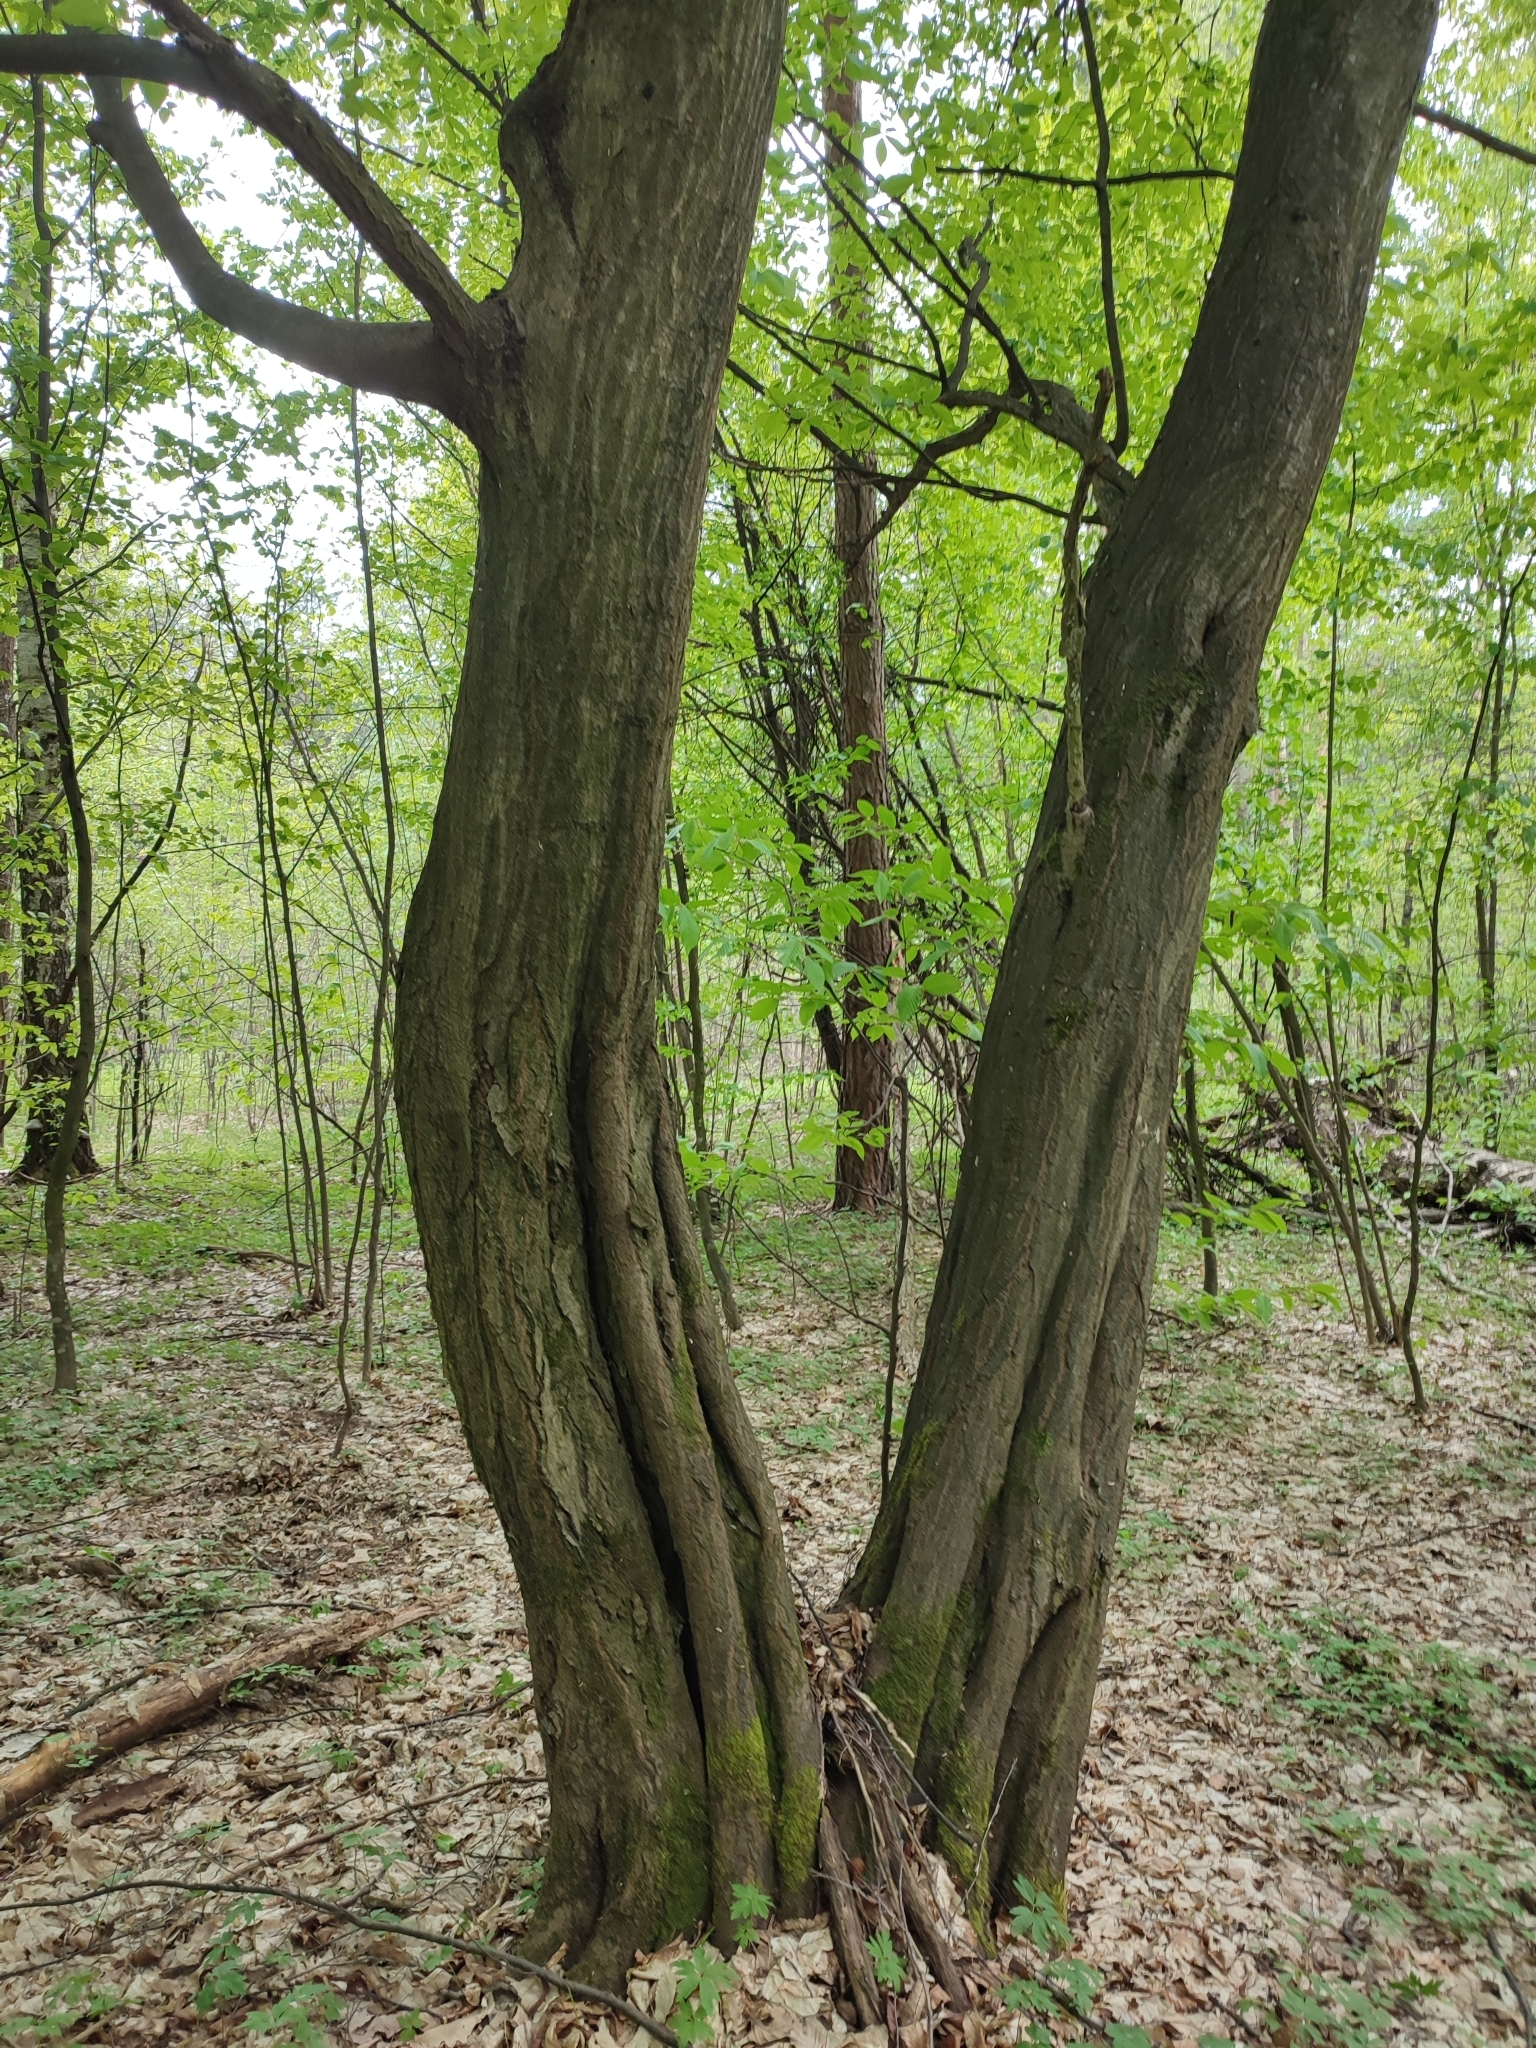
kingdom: Plantae
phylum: Tracheophyta
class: Magnoliopsida
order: Fagales
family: Betulaceae
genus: Carpinus
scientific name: Carpinus betulus
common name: Hornbeam
